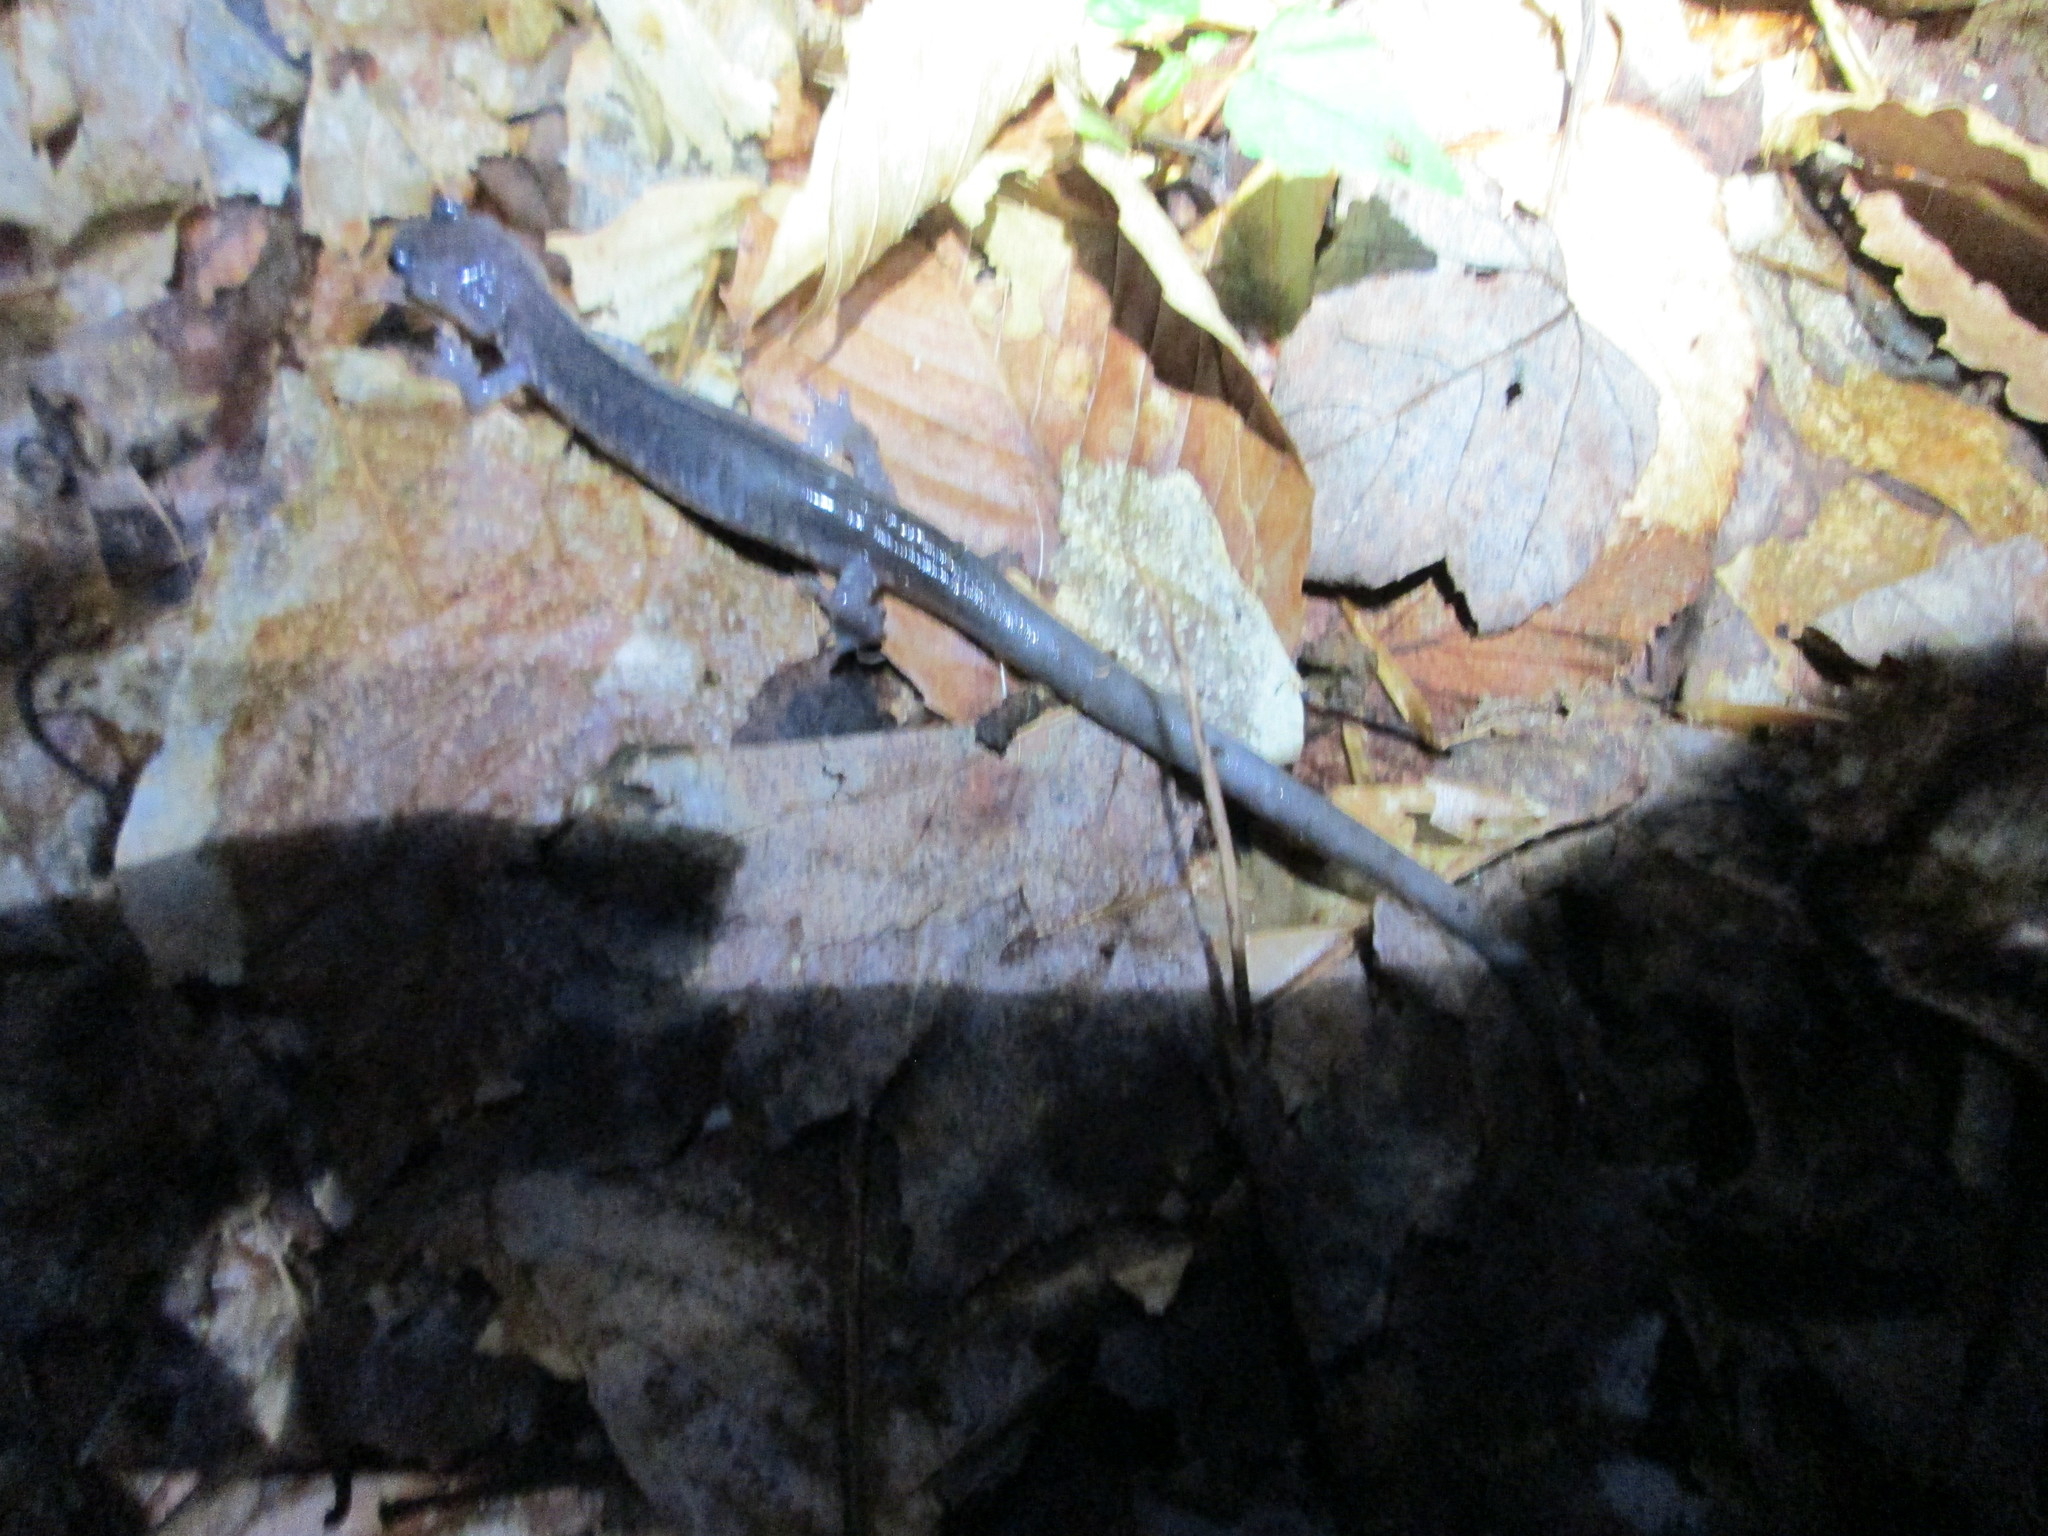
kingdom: Animalia
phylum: Chordata
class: Amphibia
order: Caudata
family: Plethodontidae
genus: Plethodon
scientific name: Plethodon wehrlei
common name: Wehrle's salamander
